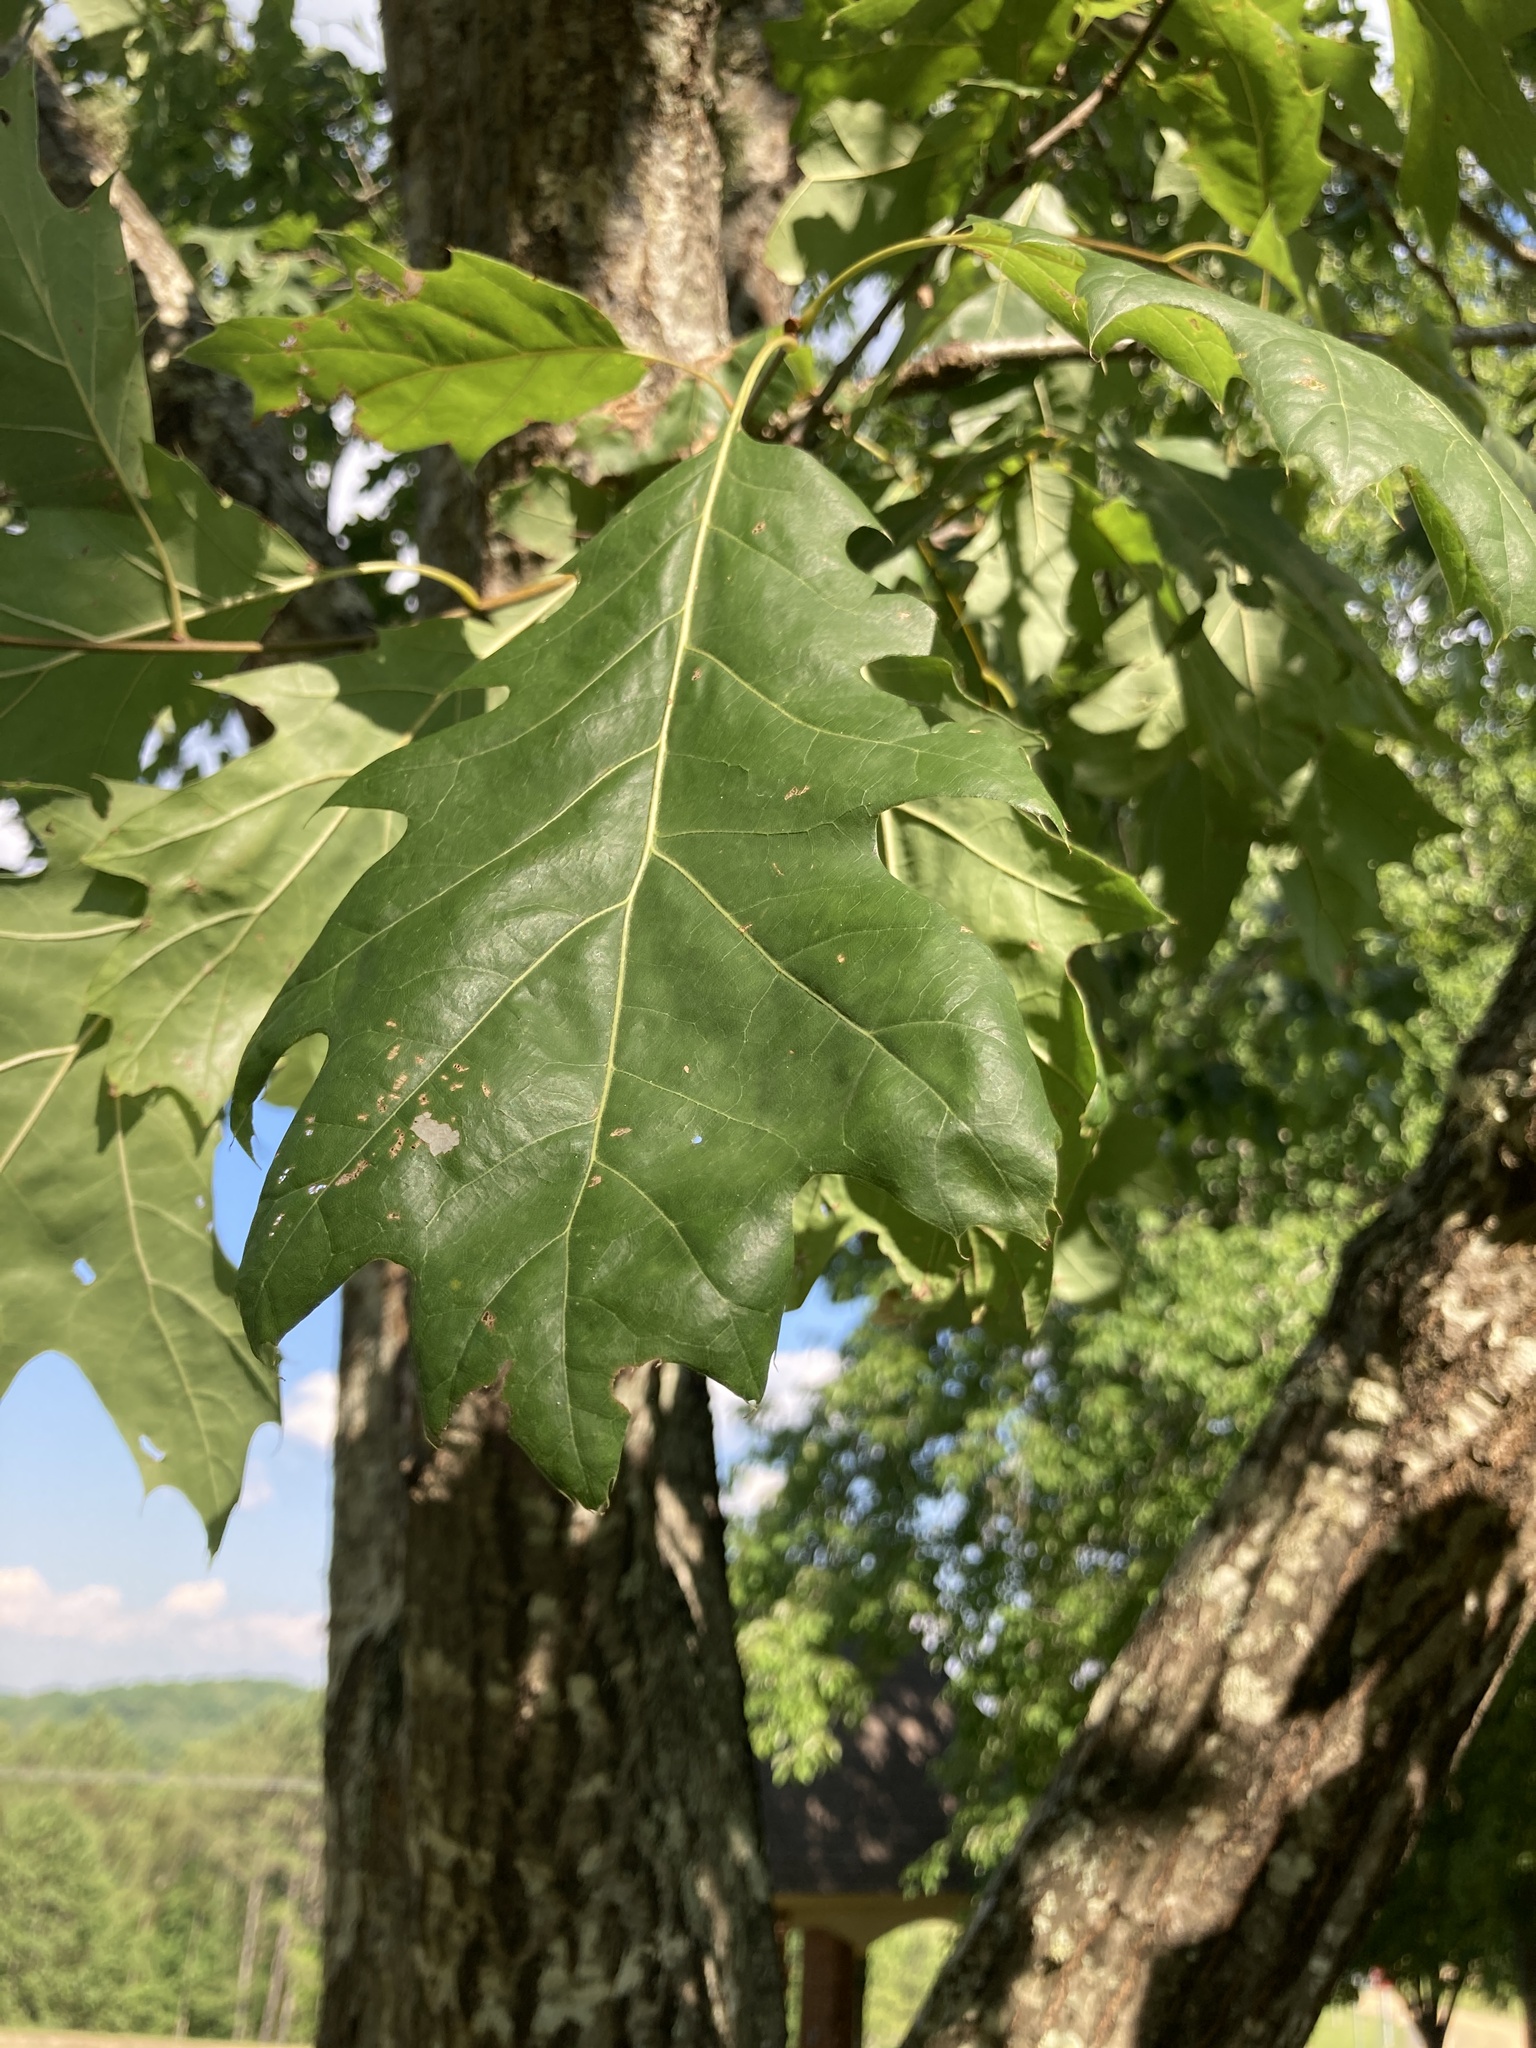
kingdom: Plantae
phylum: Tracheophyta
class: Magnoliopsida
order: Fagales
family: Fagaceae
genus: Quercus
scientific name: Quercus rubra
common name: Red oak
